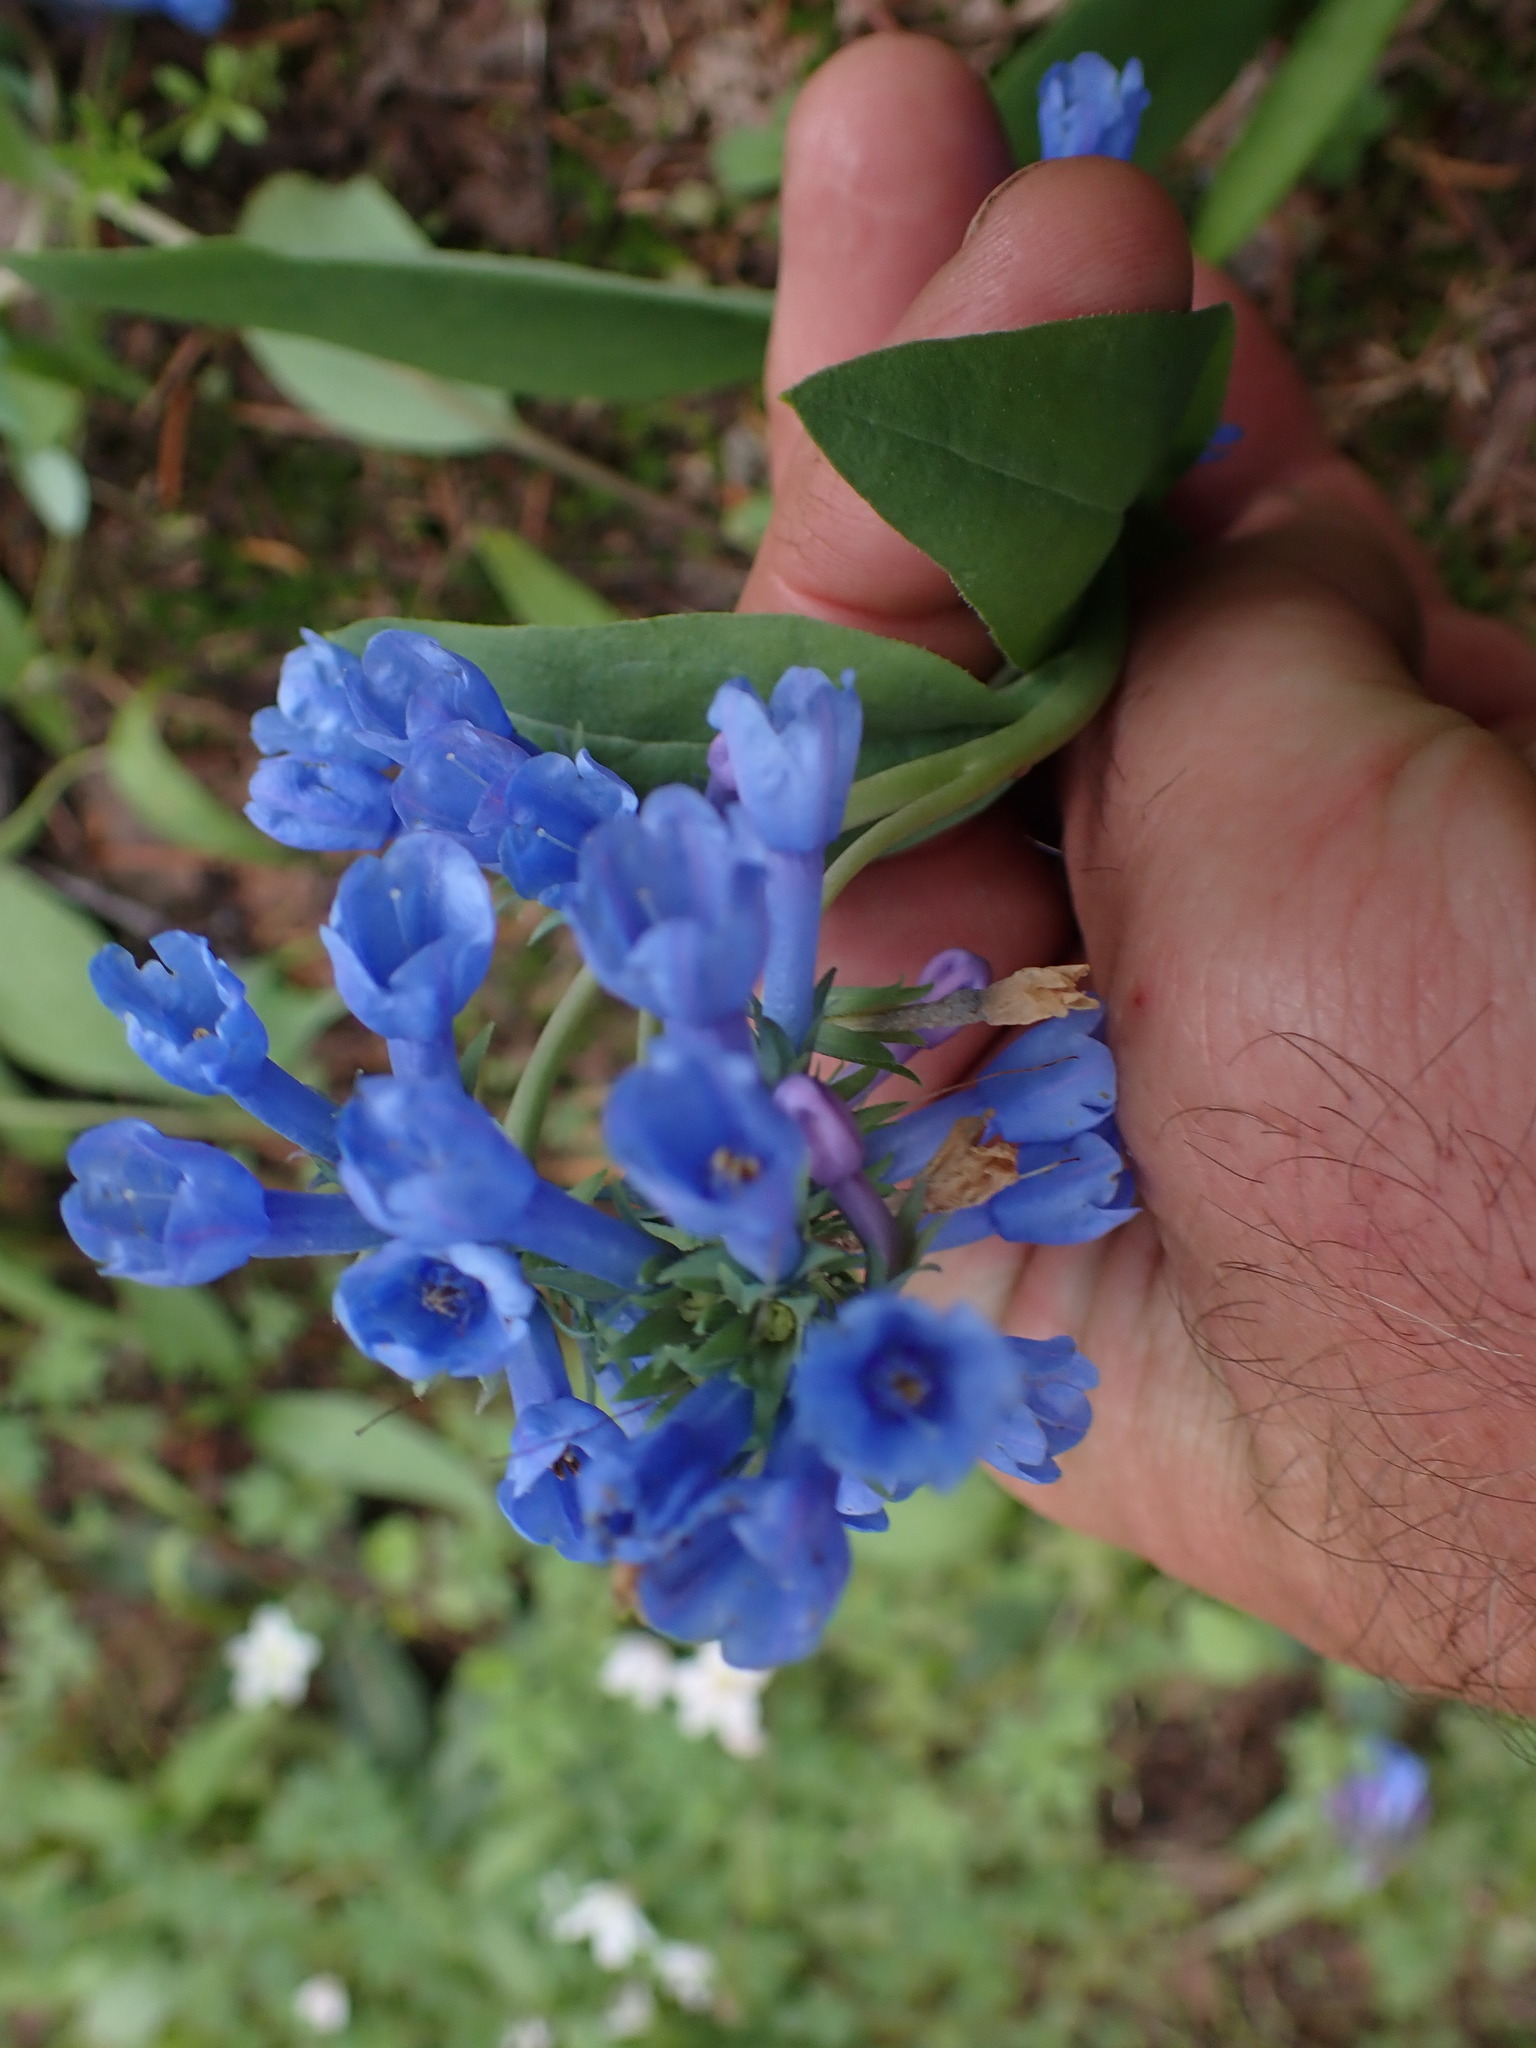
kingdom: Plantae
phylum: Tracheophyta
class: Magnoliopsida
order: Boraginales
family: Boraginaceae
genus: Mertensia
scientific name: Mertensia longiflora
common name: Large-flowered bluebells
